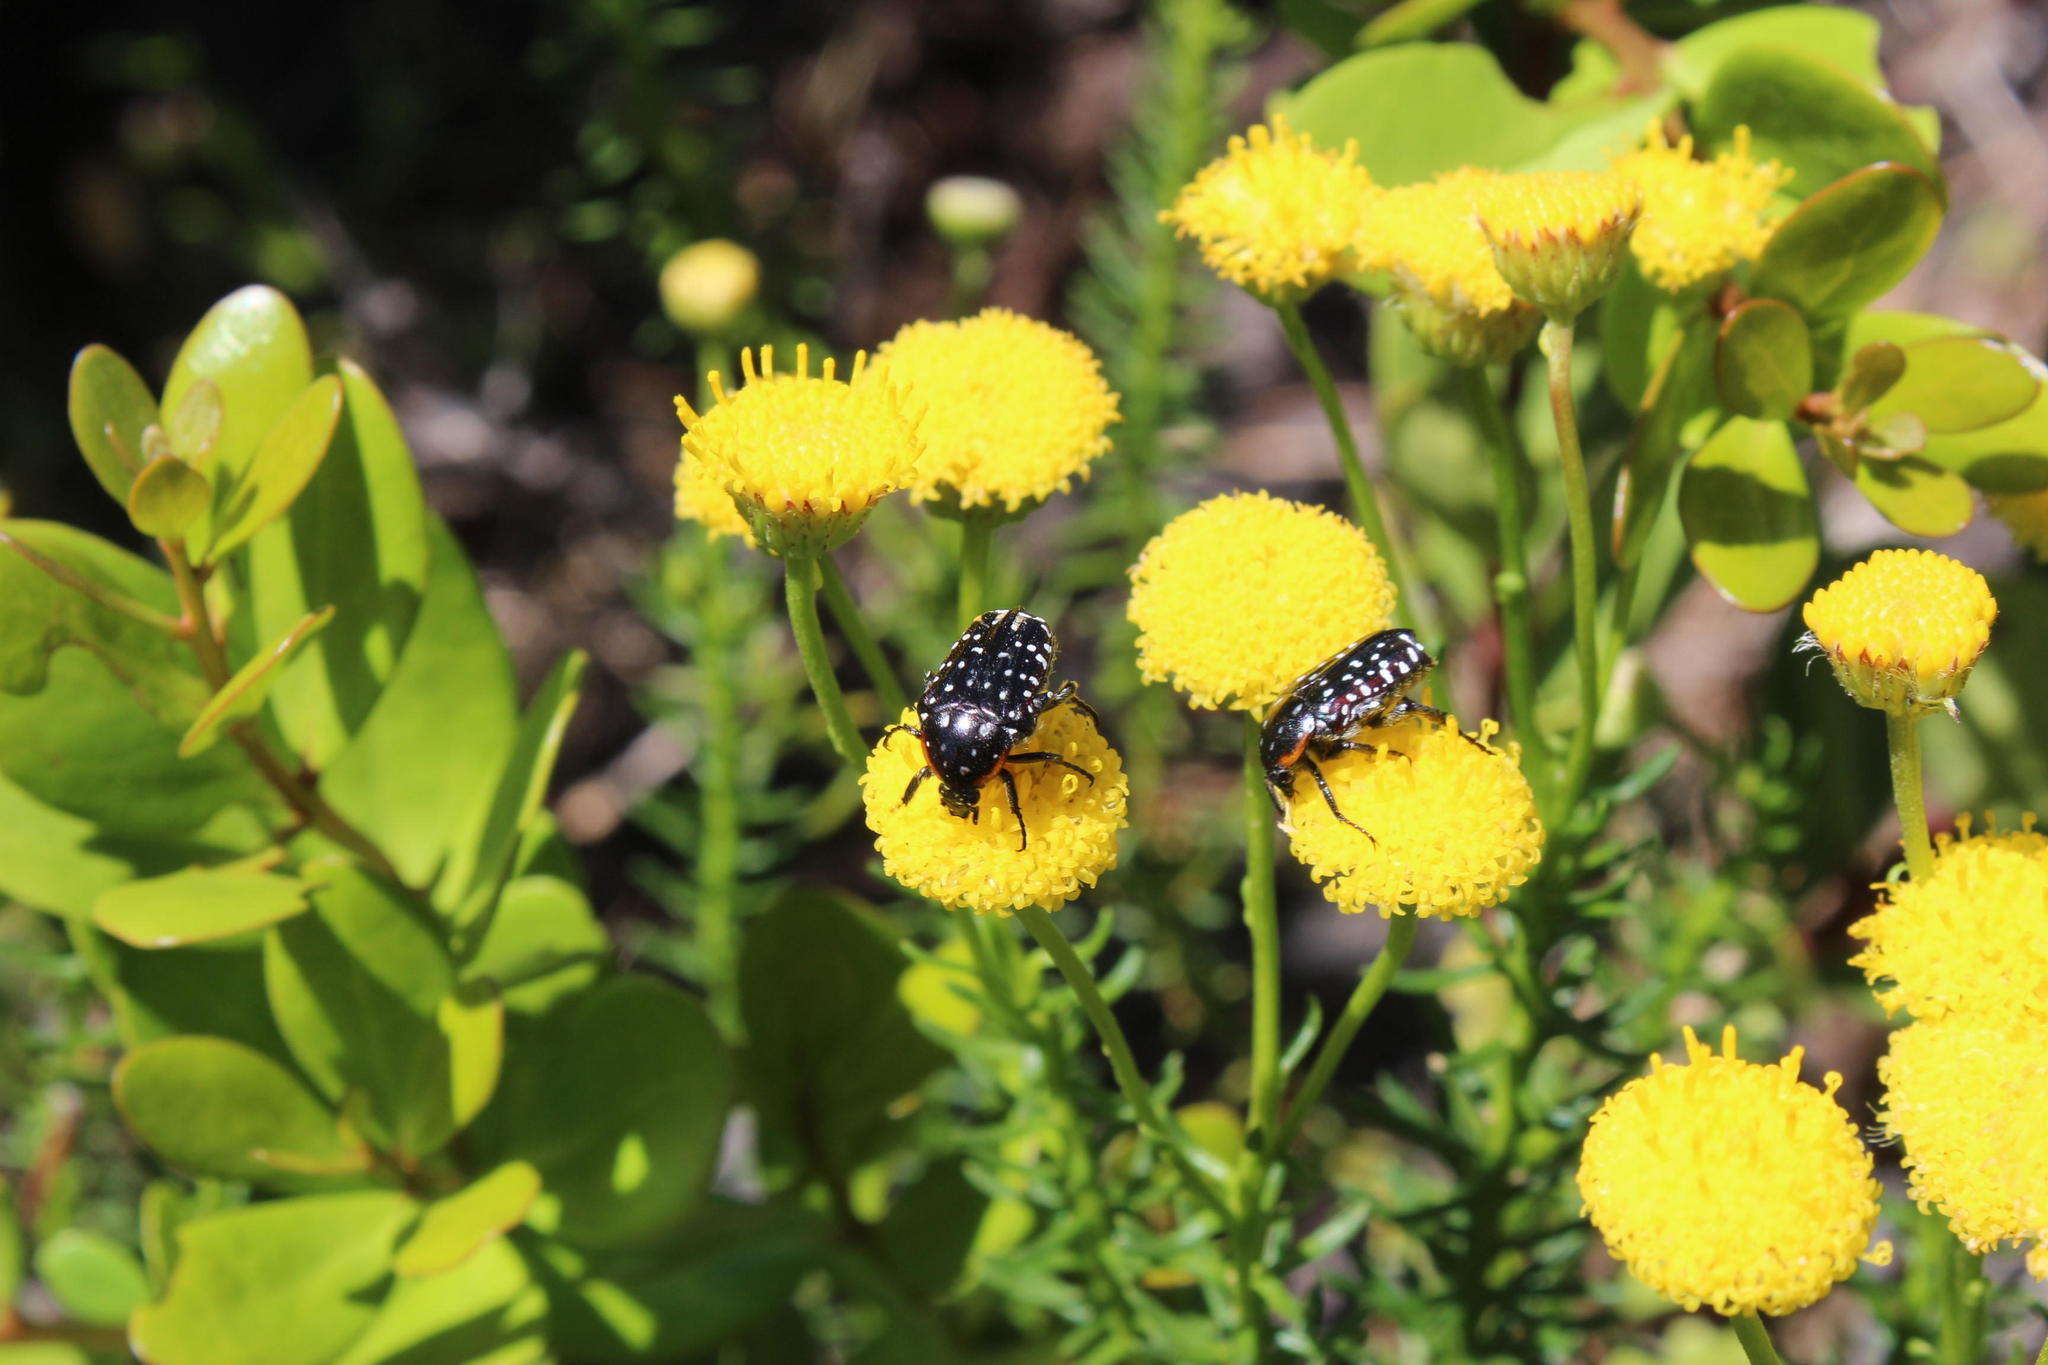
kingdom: Plantae
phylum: Tracheophyta
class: Magnoliopsida
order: Asterales
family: Asteraceae
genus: Chrysocoma
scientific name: Chrysocoma cernua
